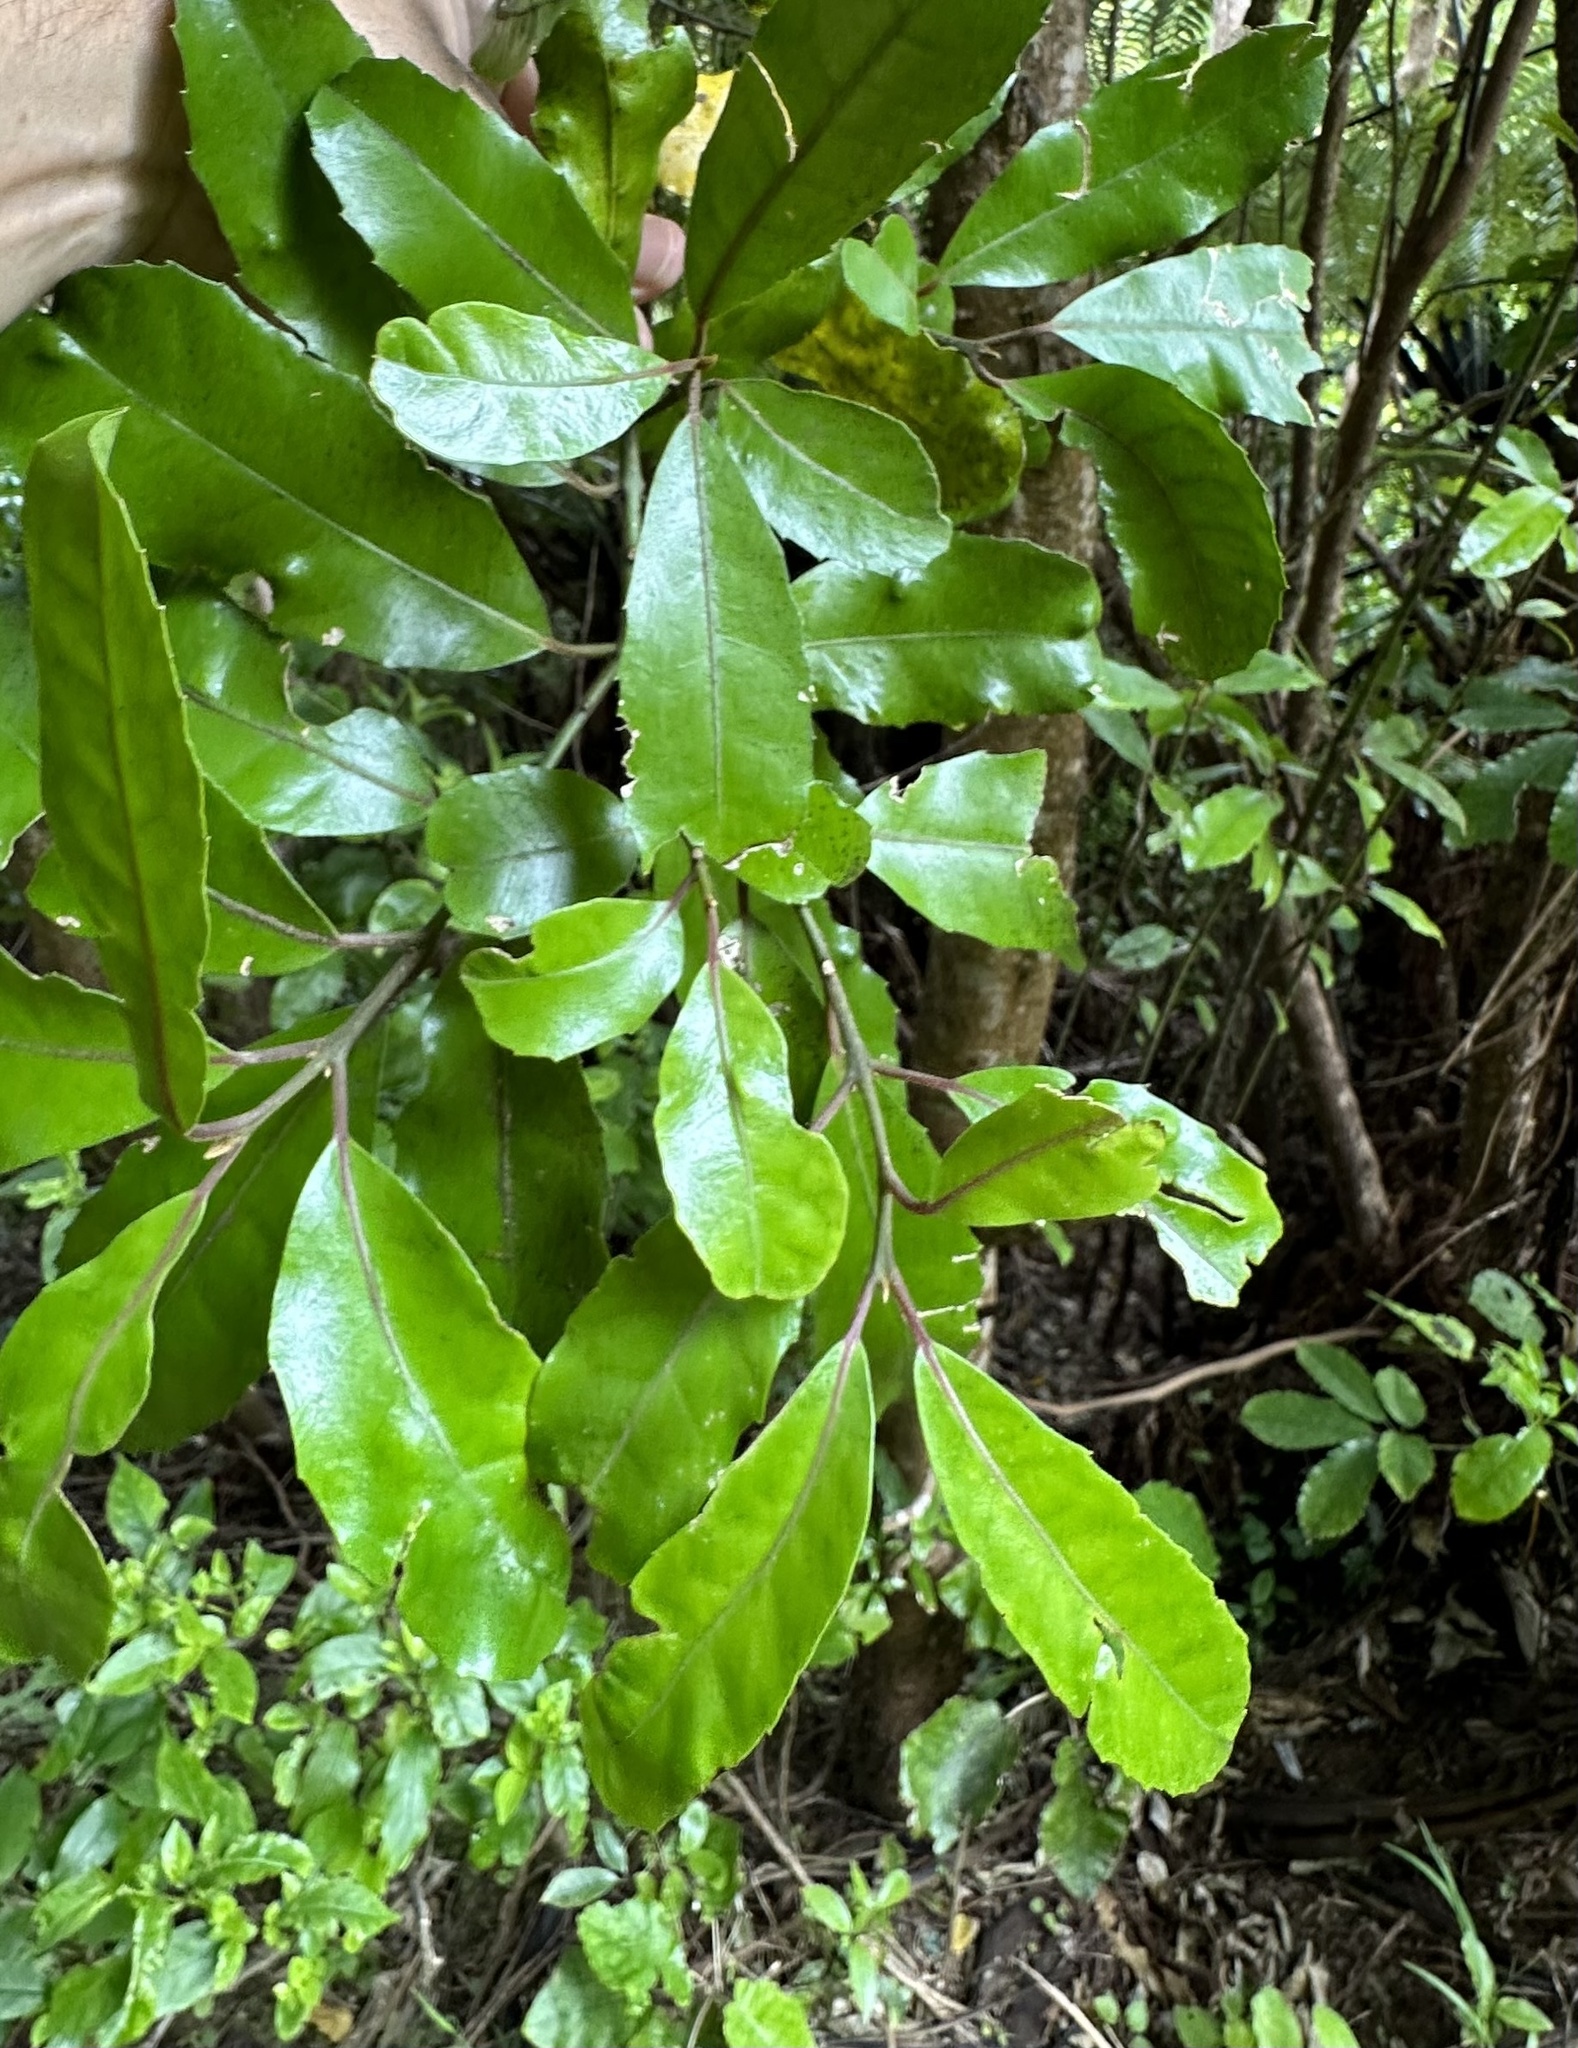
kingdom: Plantae
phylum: Tracheophyta
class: Magnoliopsida
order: Laurales
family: Monimiaceae
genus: Hedycarya
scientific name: Hedycarya arborea
